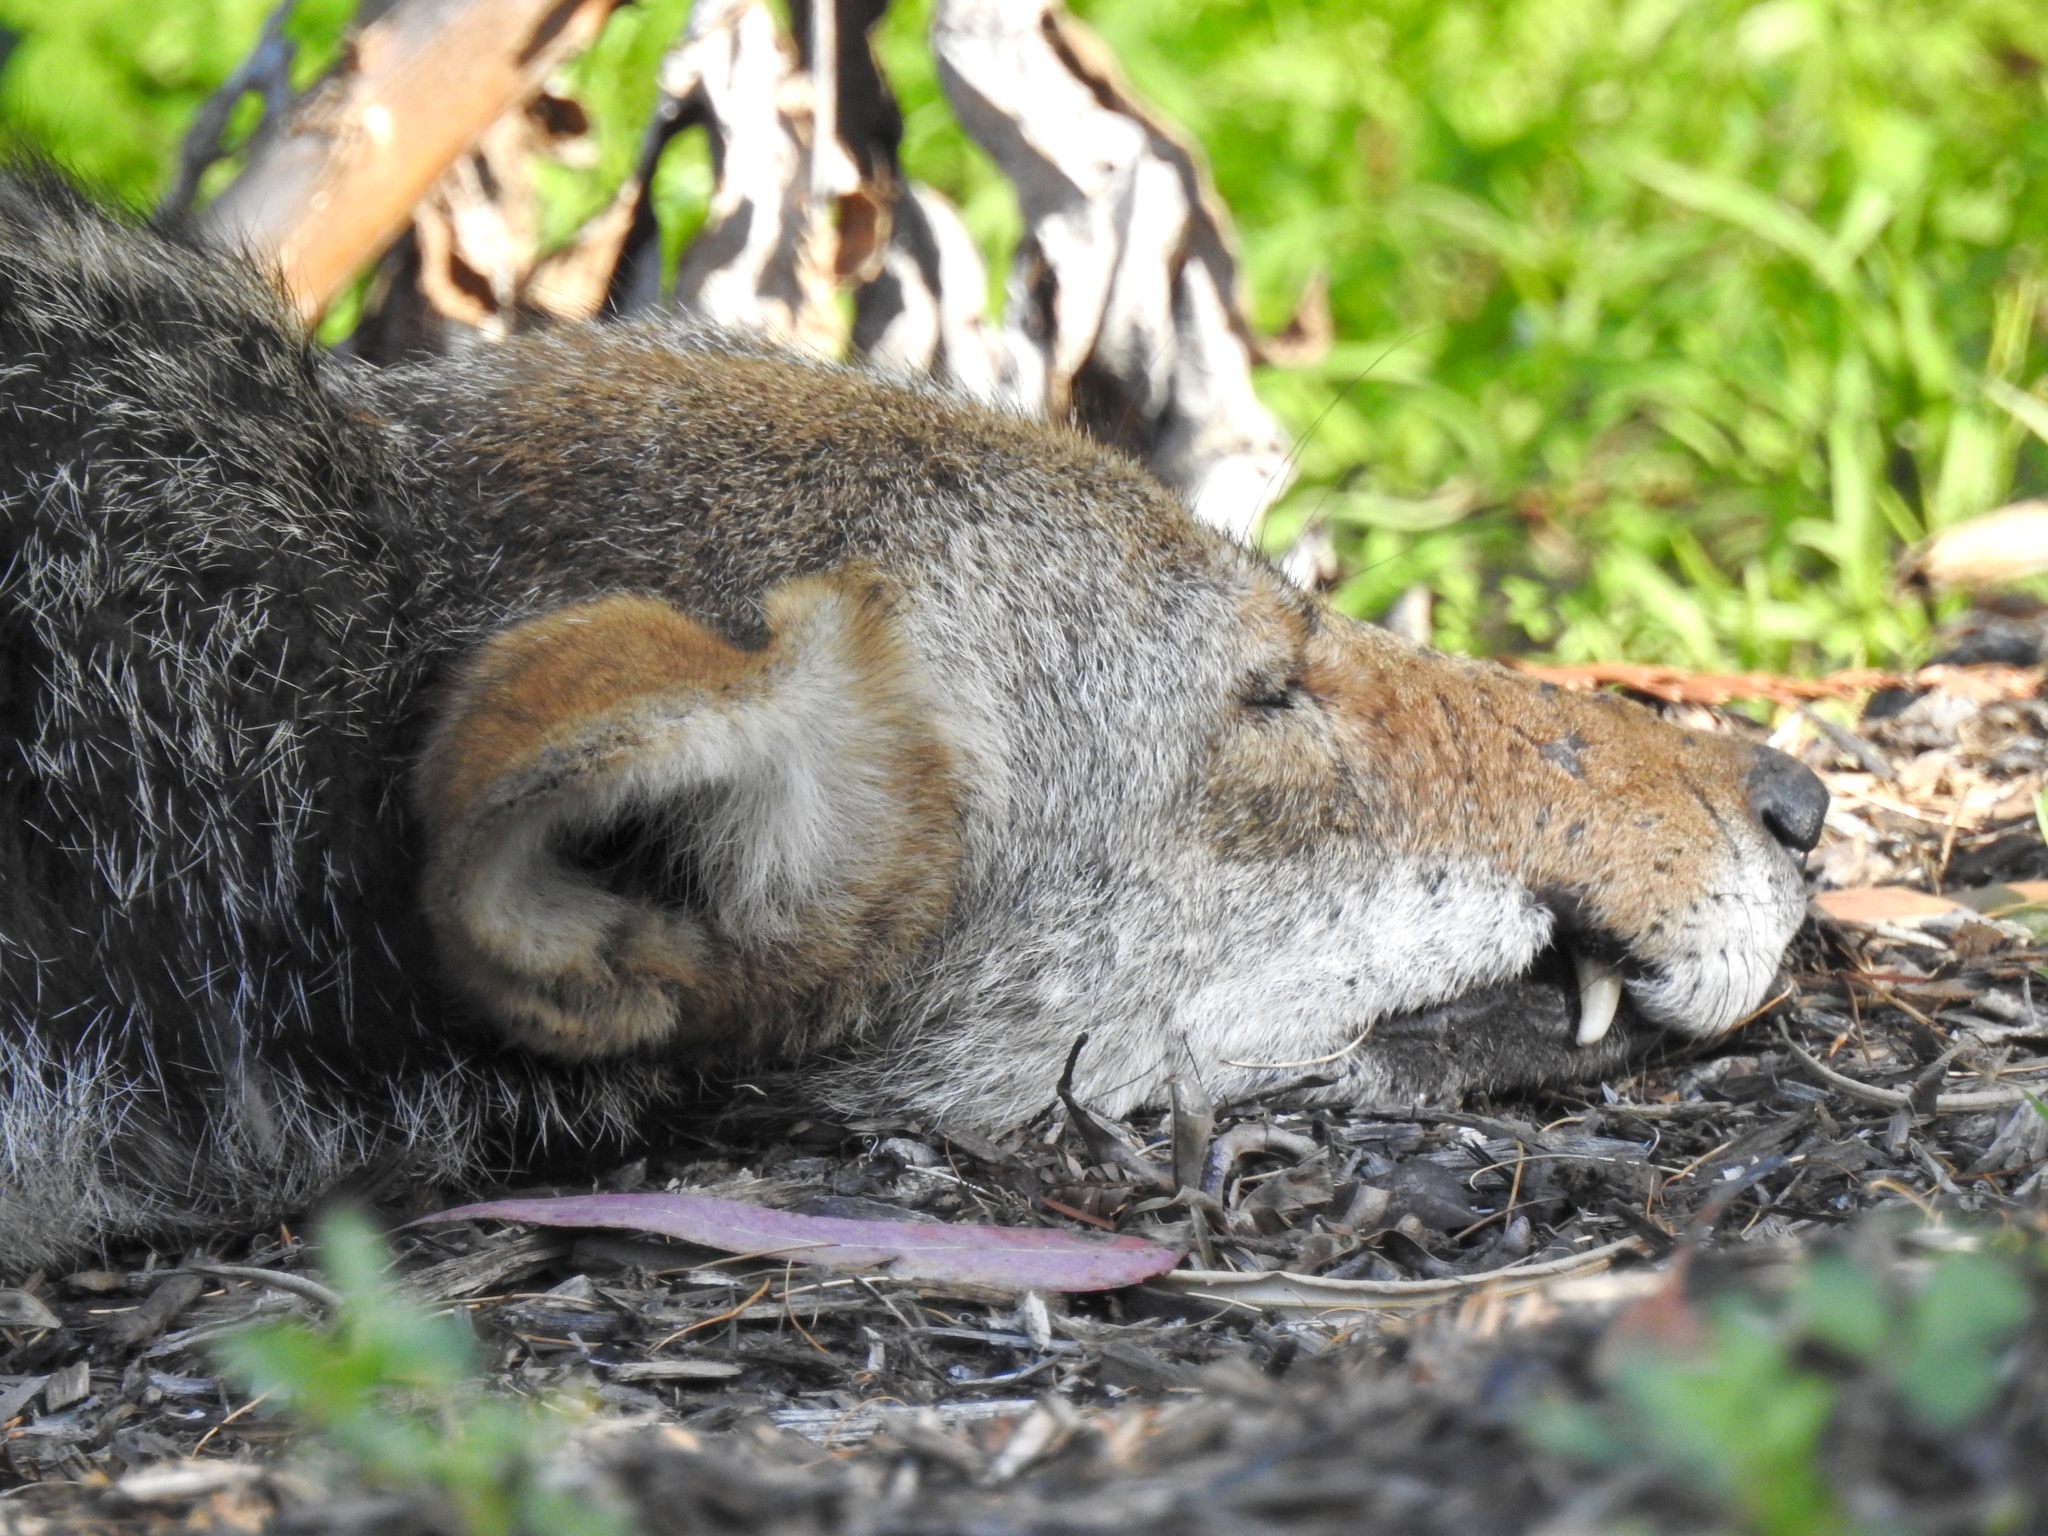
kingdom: Animalia
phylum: Chordata
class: Mammalia
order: Carnivora
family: Canidae
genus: Canis
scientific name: Canis latrans
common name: Coyote
